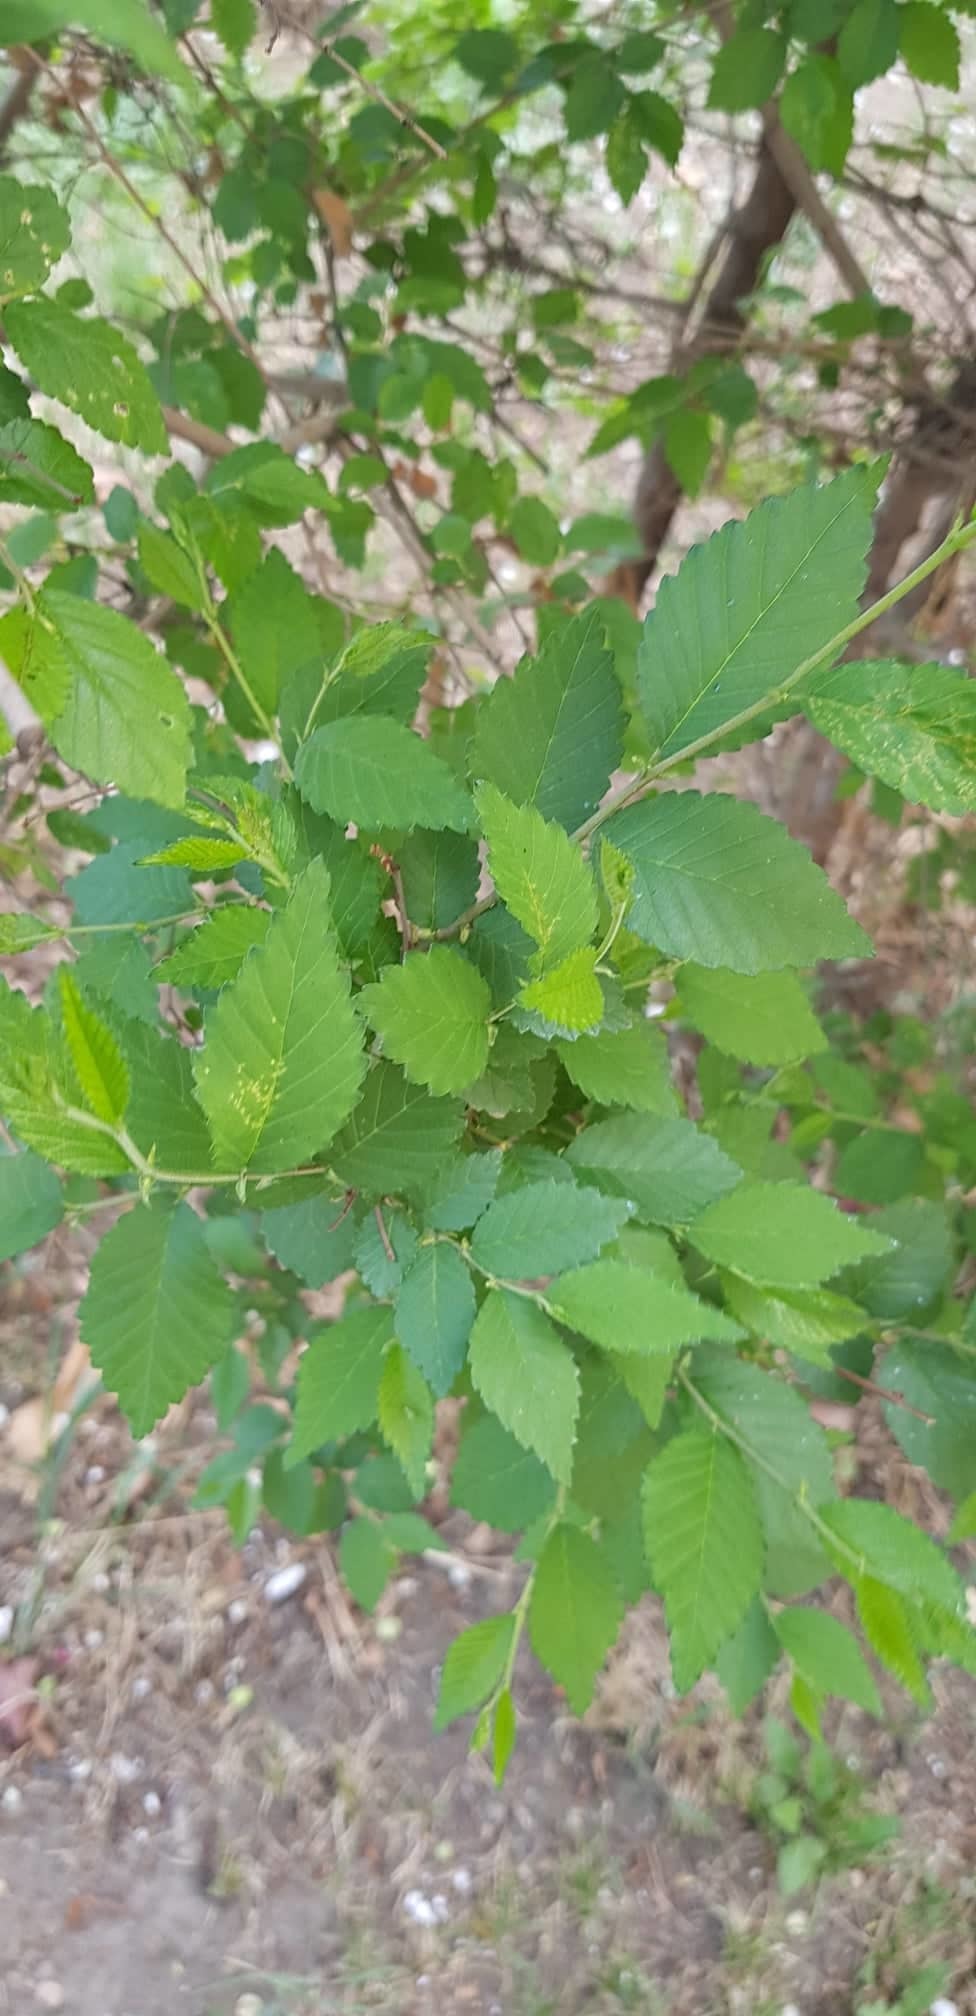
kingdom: Plantae
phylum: Tracheophyta
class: Magnoliopsida
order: Rosales
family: Ulmaceae
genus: Ulmus
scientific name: Ulmus pumila
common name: Siberian elm
